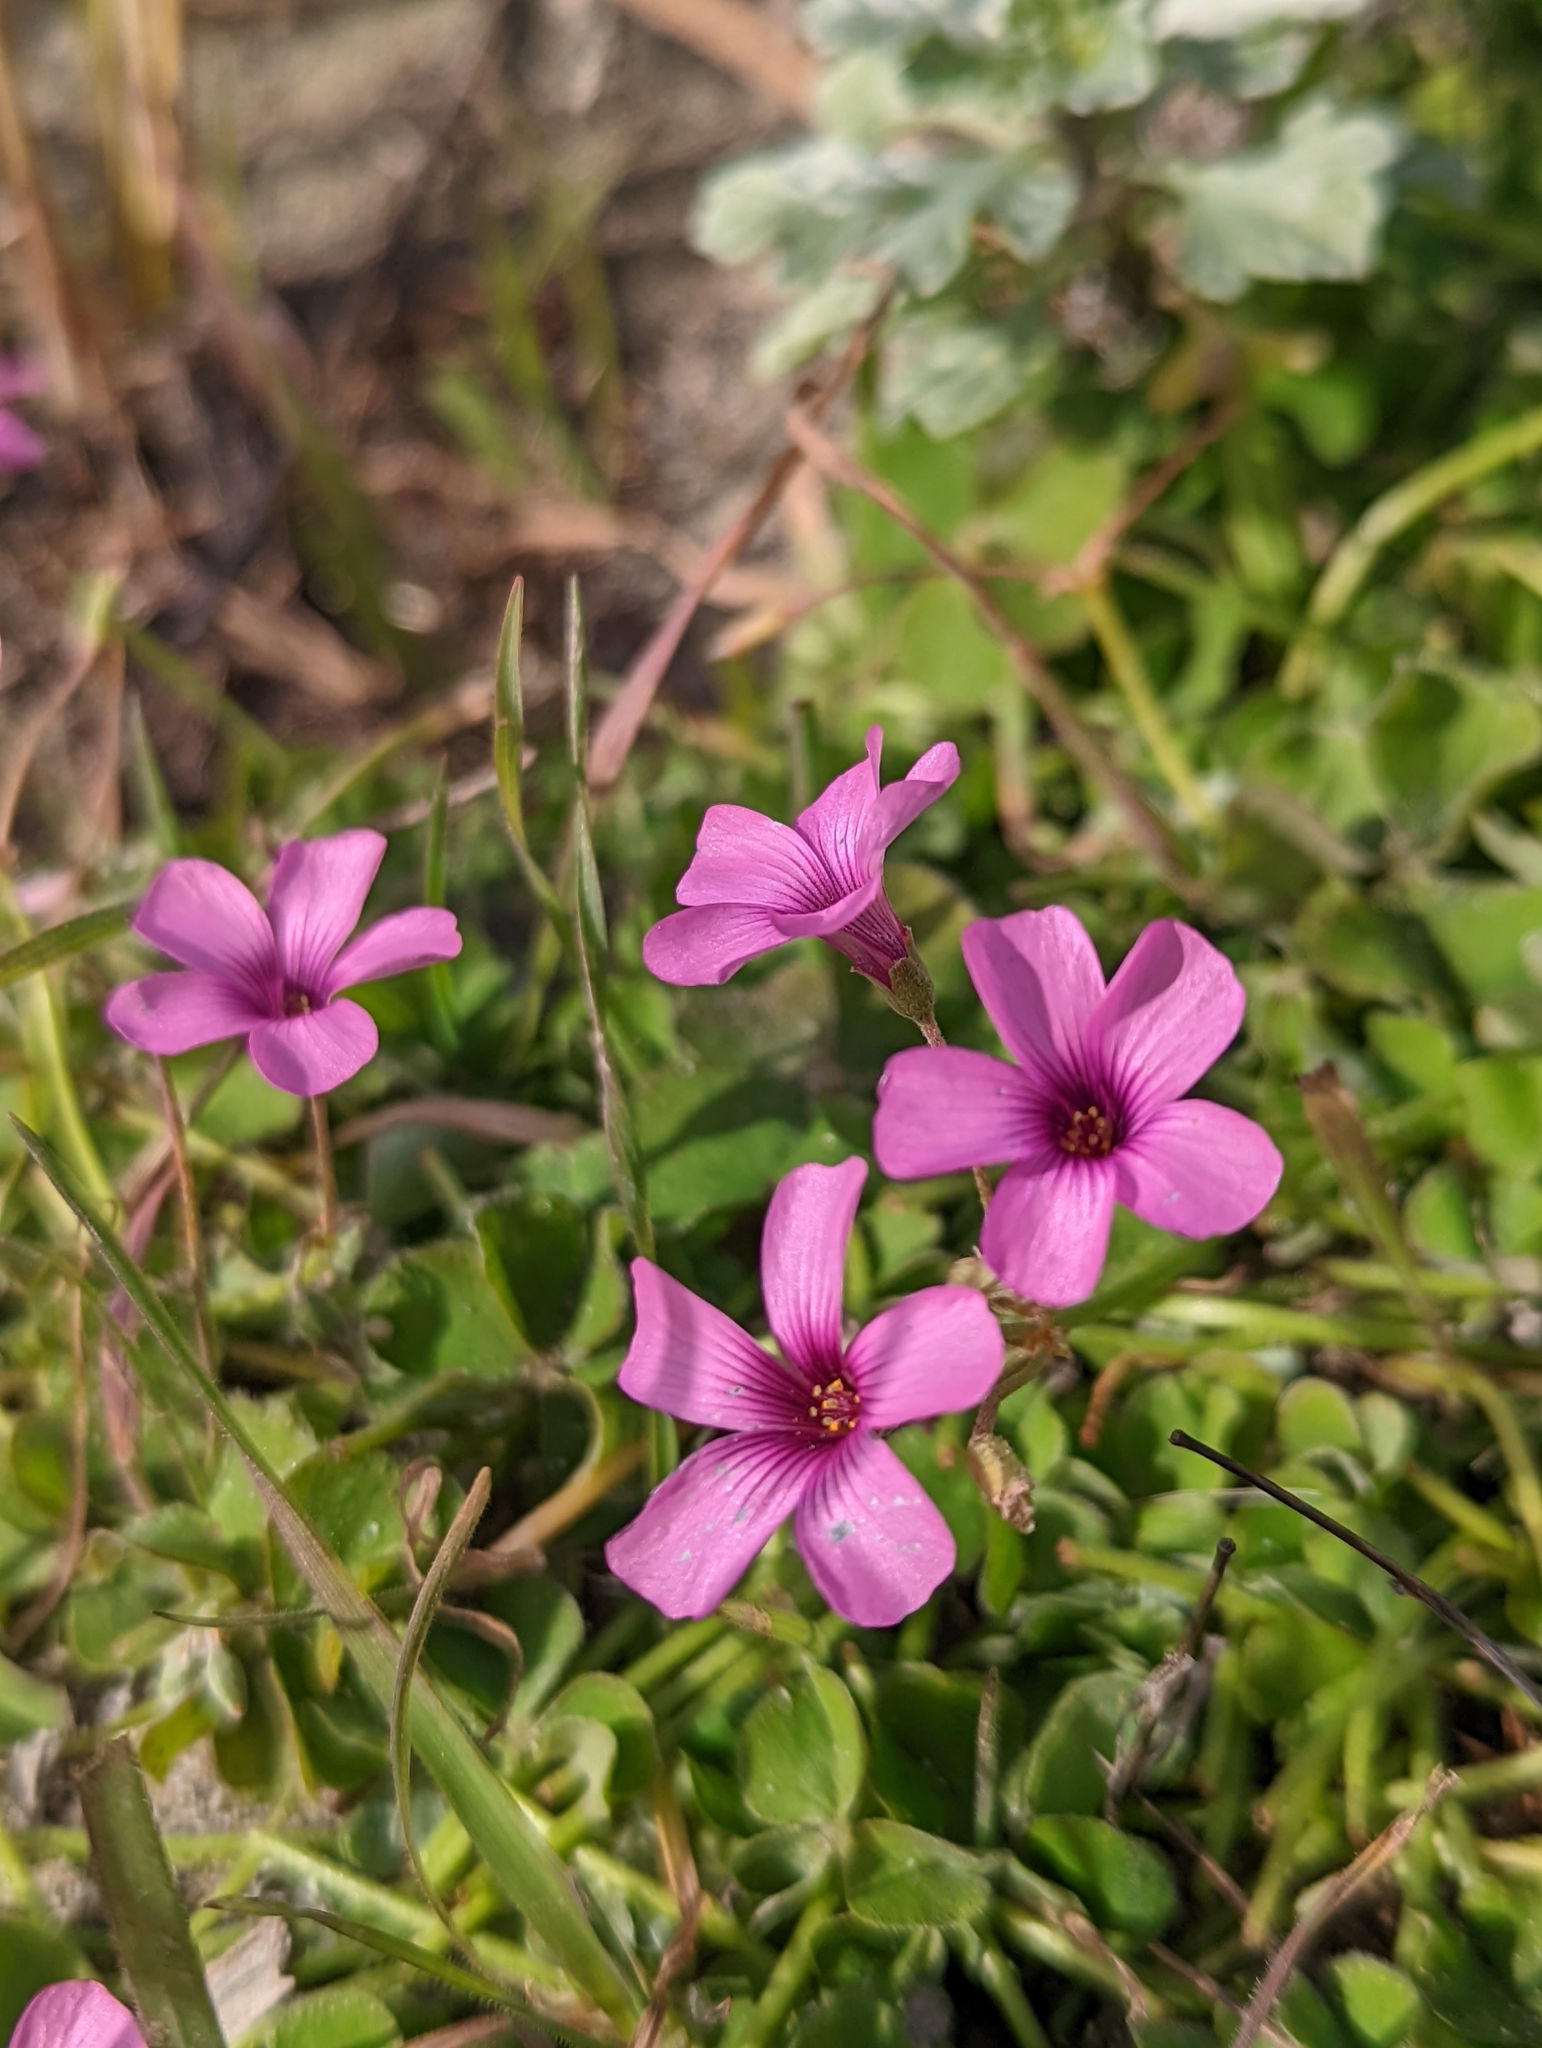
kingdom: Plantae
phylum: Tracheophyta
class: Magnoliopsida
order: Oxalidales
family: Oxalidaceae
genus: Oxalis
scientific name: Oxalis articulata
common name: Pink-sorrel
